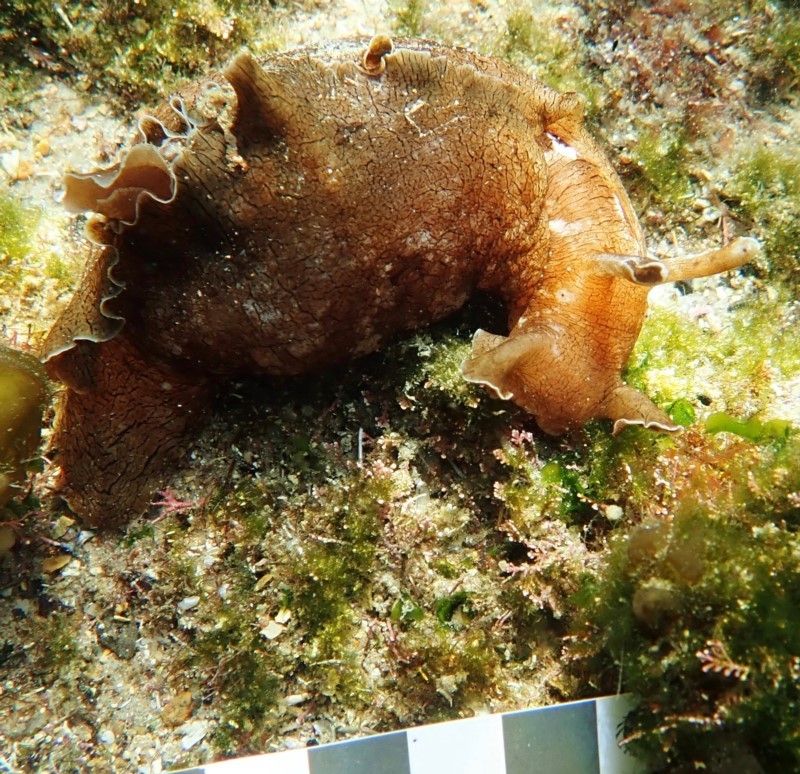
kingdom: Animalia
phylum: Mollusca
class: Gastropoda
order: Aplysiida
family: Aplysiidae
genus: Aplysia
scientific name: Aplysia sydneyensis
